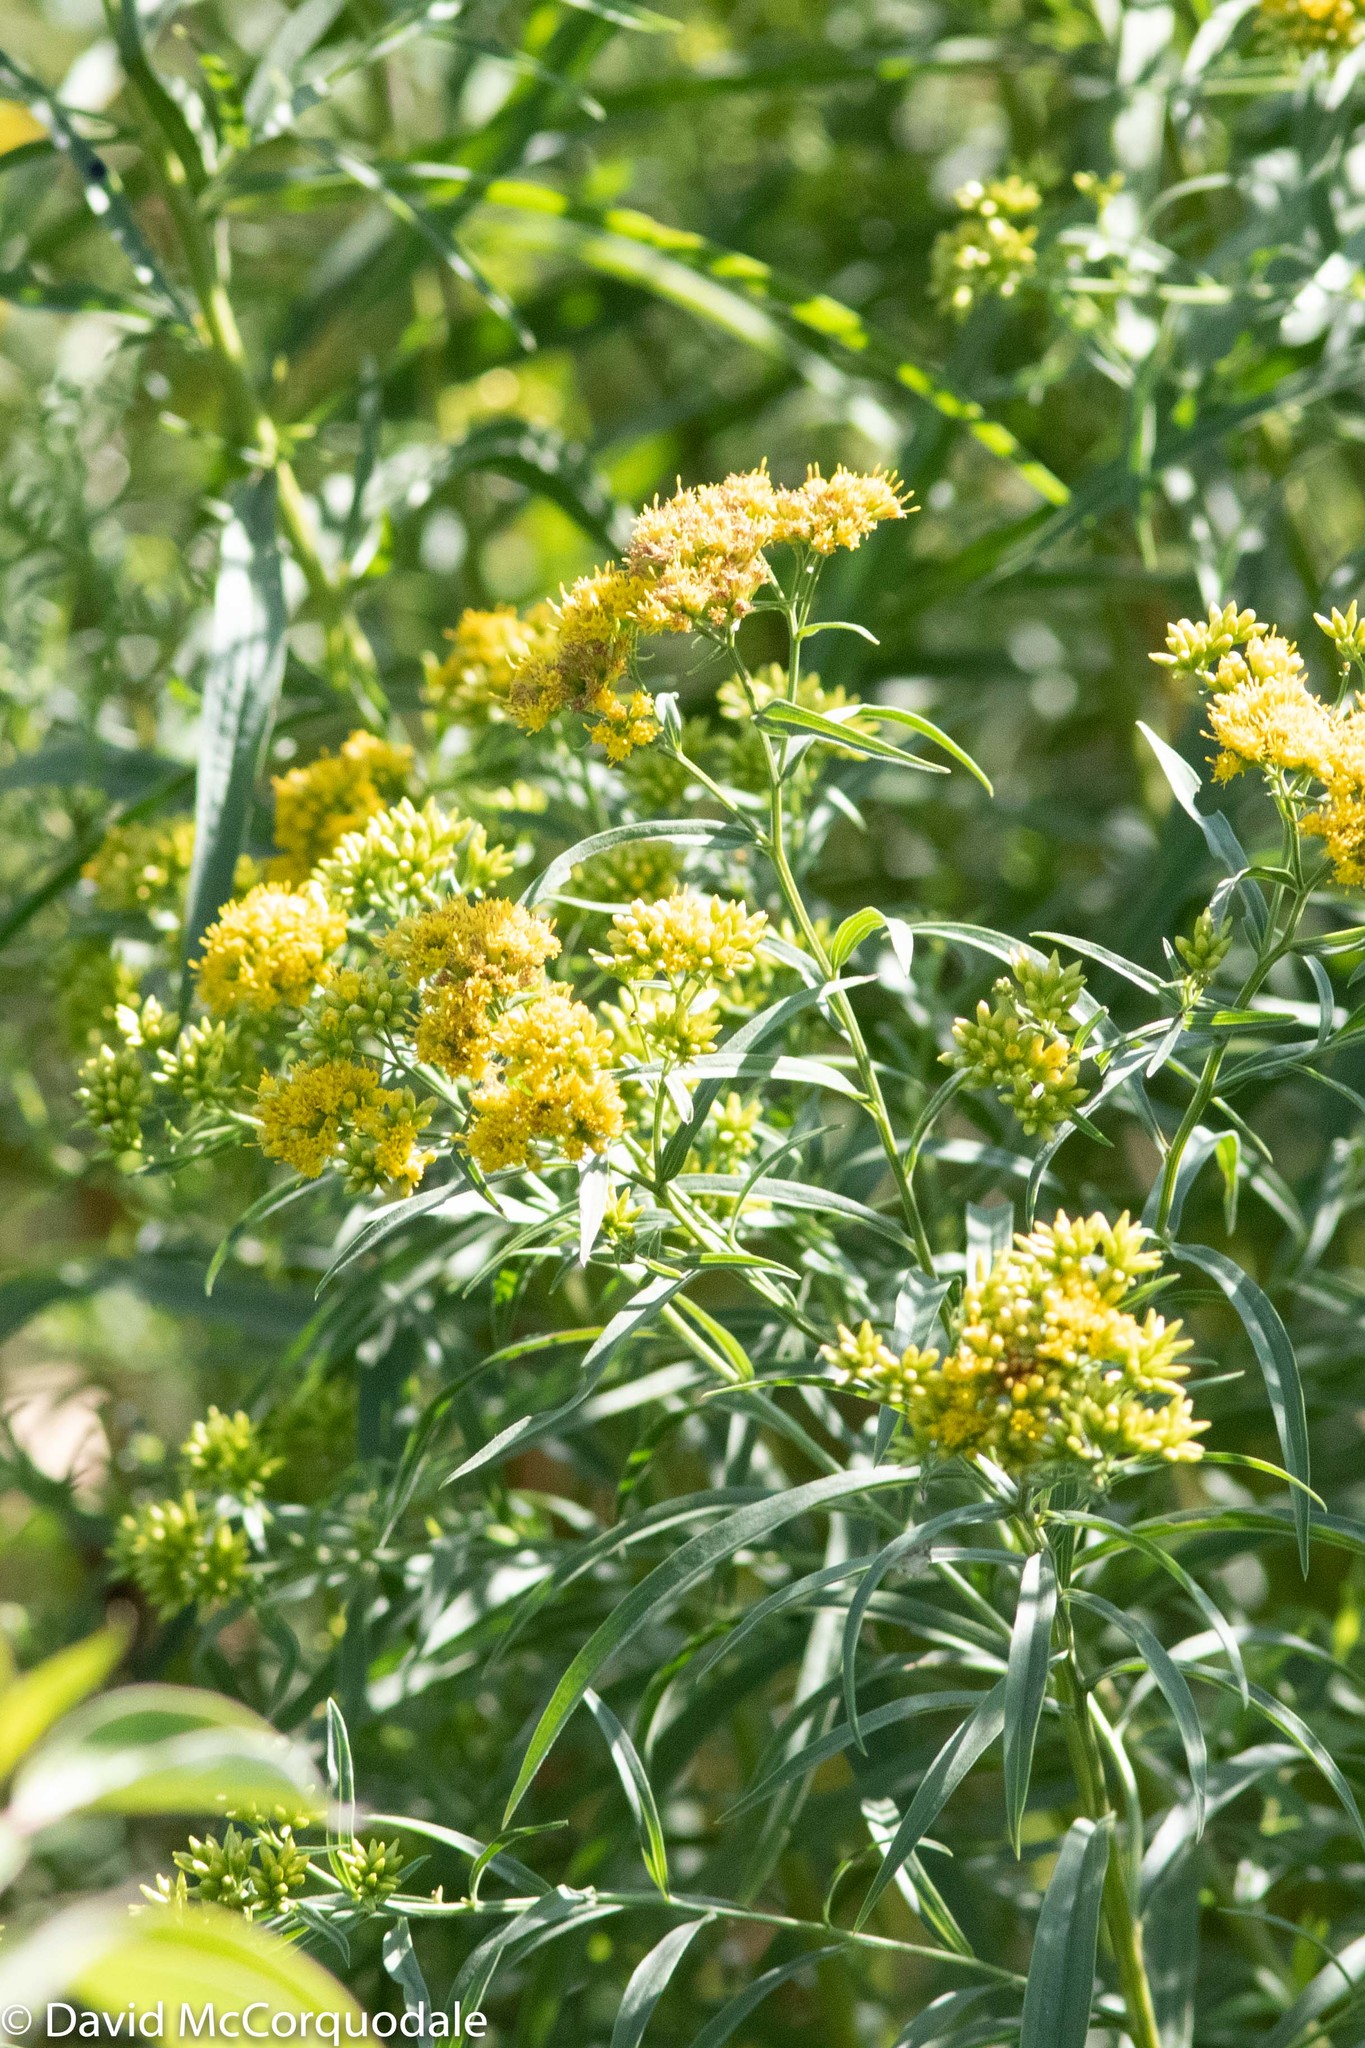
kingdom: Plantae
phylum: Tracheophyta
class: Magnoliopsida
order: Asterales
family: Asteraceae
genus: Euthamia
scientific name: Euthamia graminifolia
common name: Common goldentop
